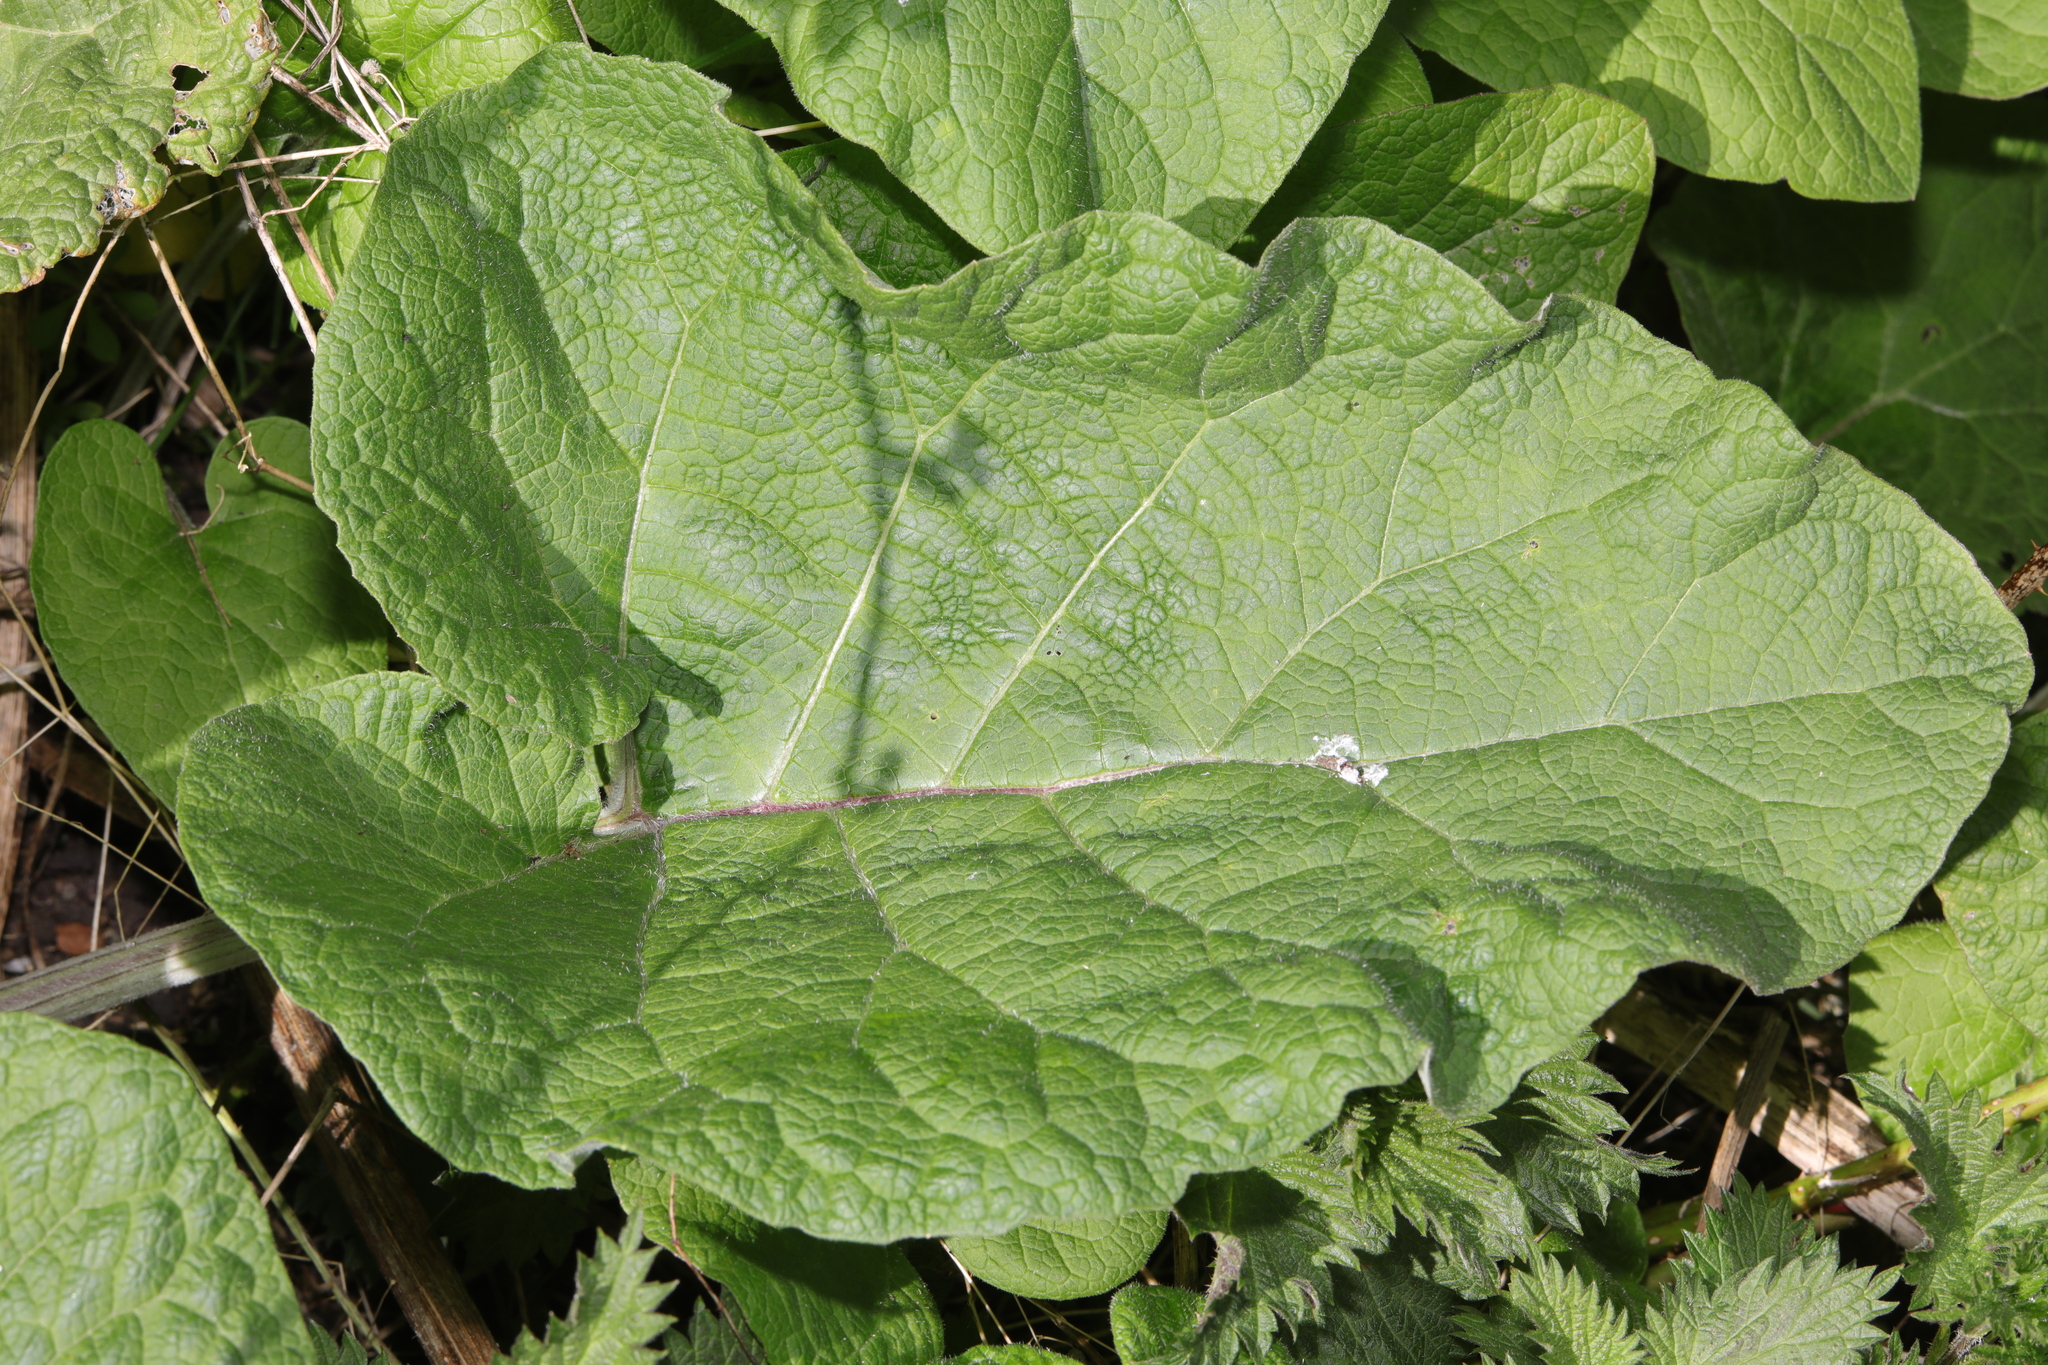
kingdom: Plantae
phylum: Tracheophyta
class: Magnoliopsida
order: Asterales
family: Asteraceae
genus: Arctium
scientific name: Arctium minus
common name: Lesser burdock
